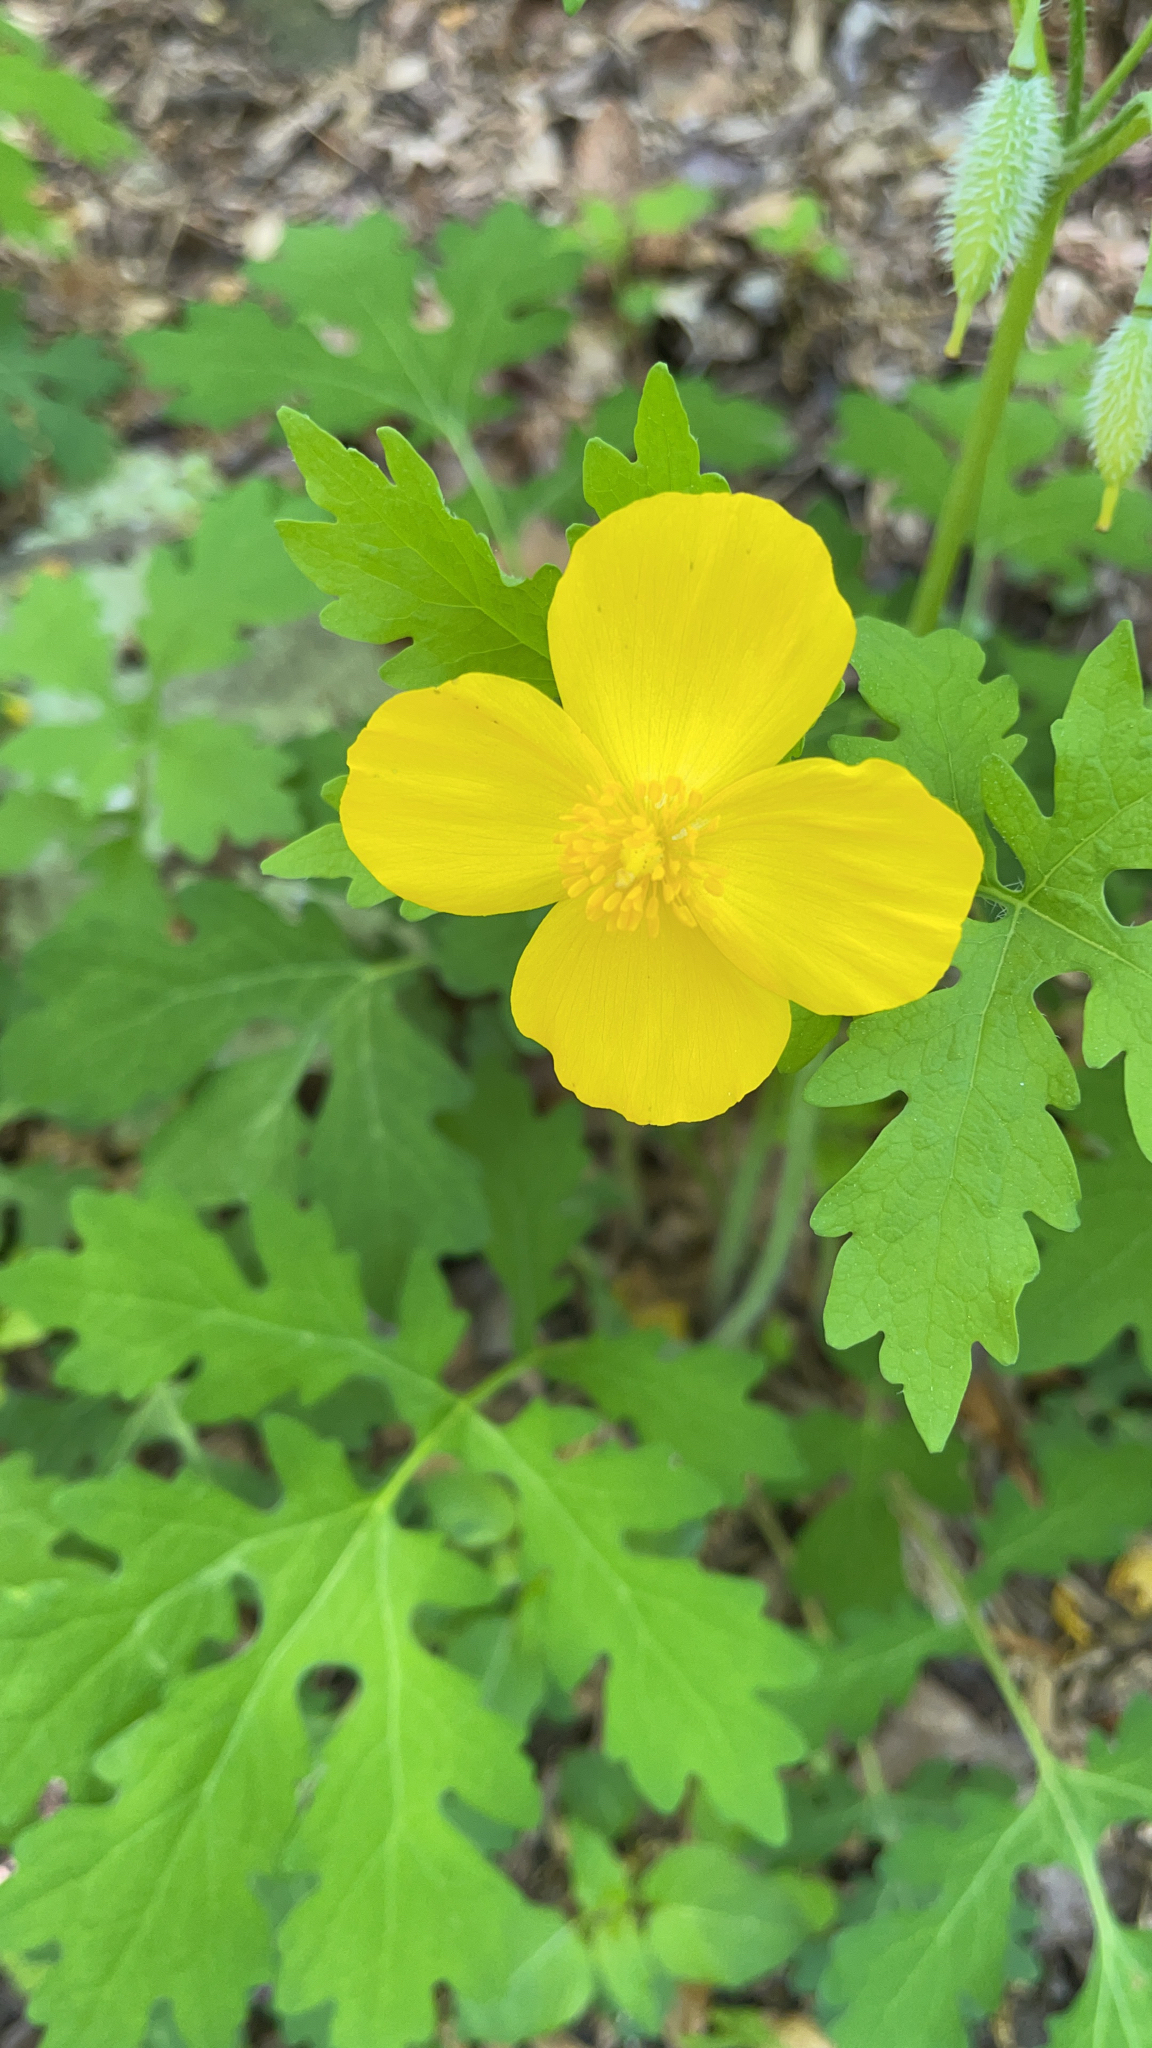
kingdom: Plantae
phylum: Tracheophyta
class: Magnoliopsida
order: Ranunculales
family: Papaveraceae
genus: Stylophorum
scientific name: Stylophorum diphyllum
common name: Celandine poppy
